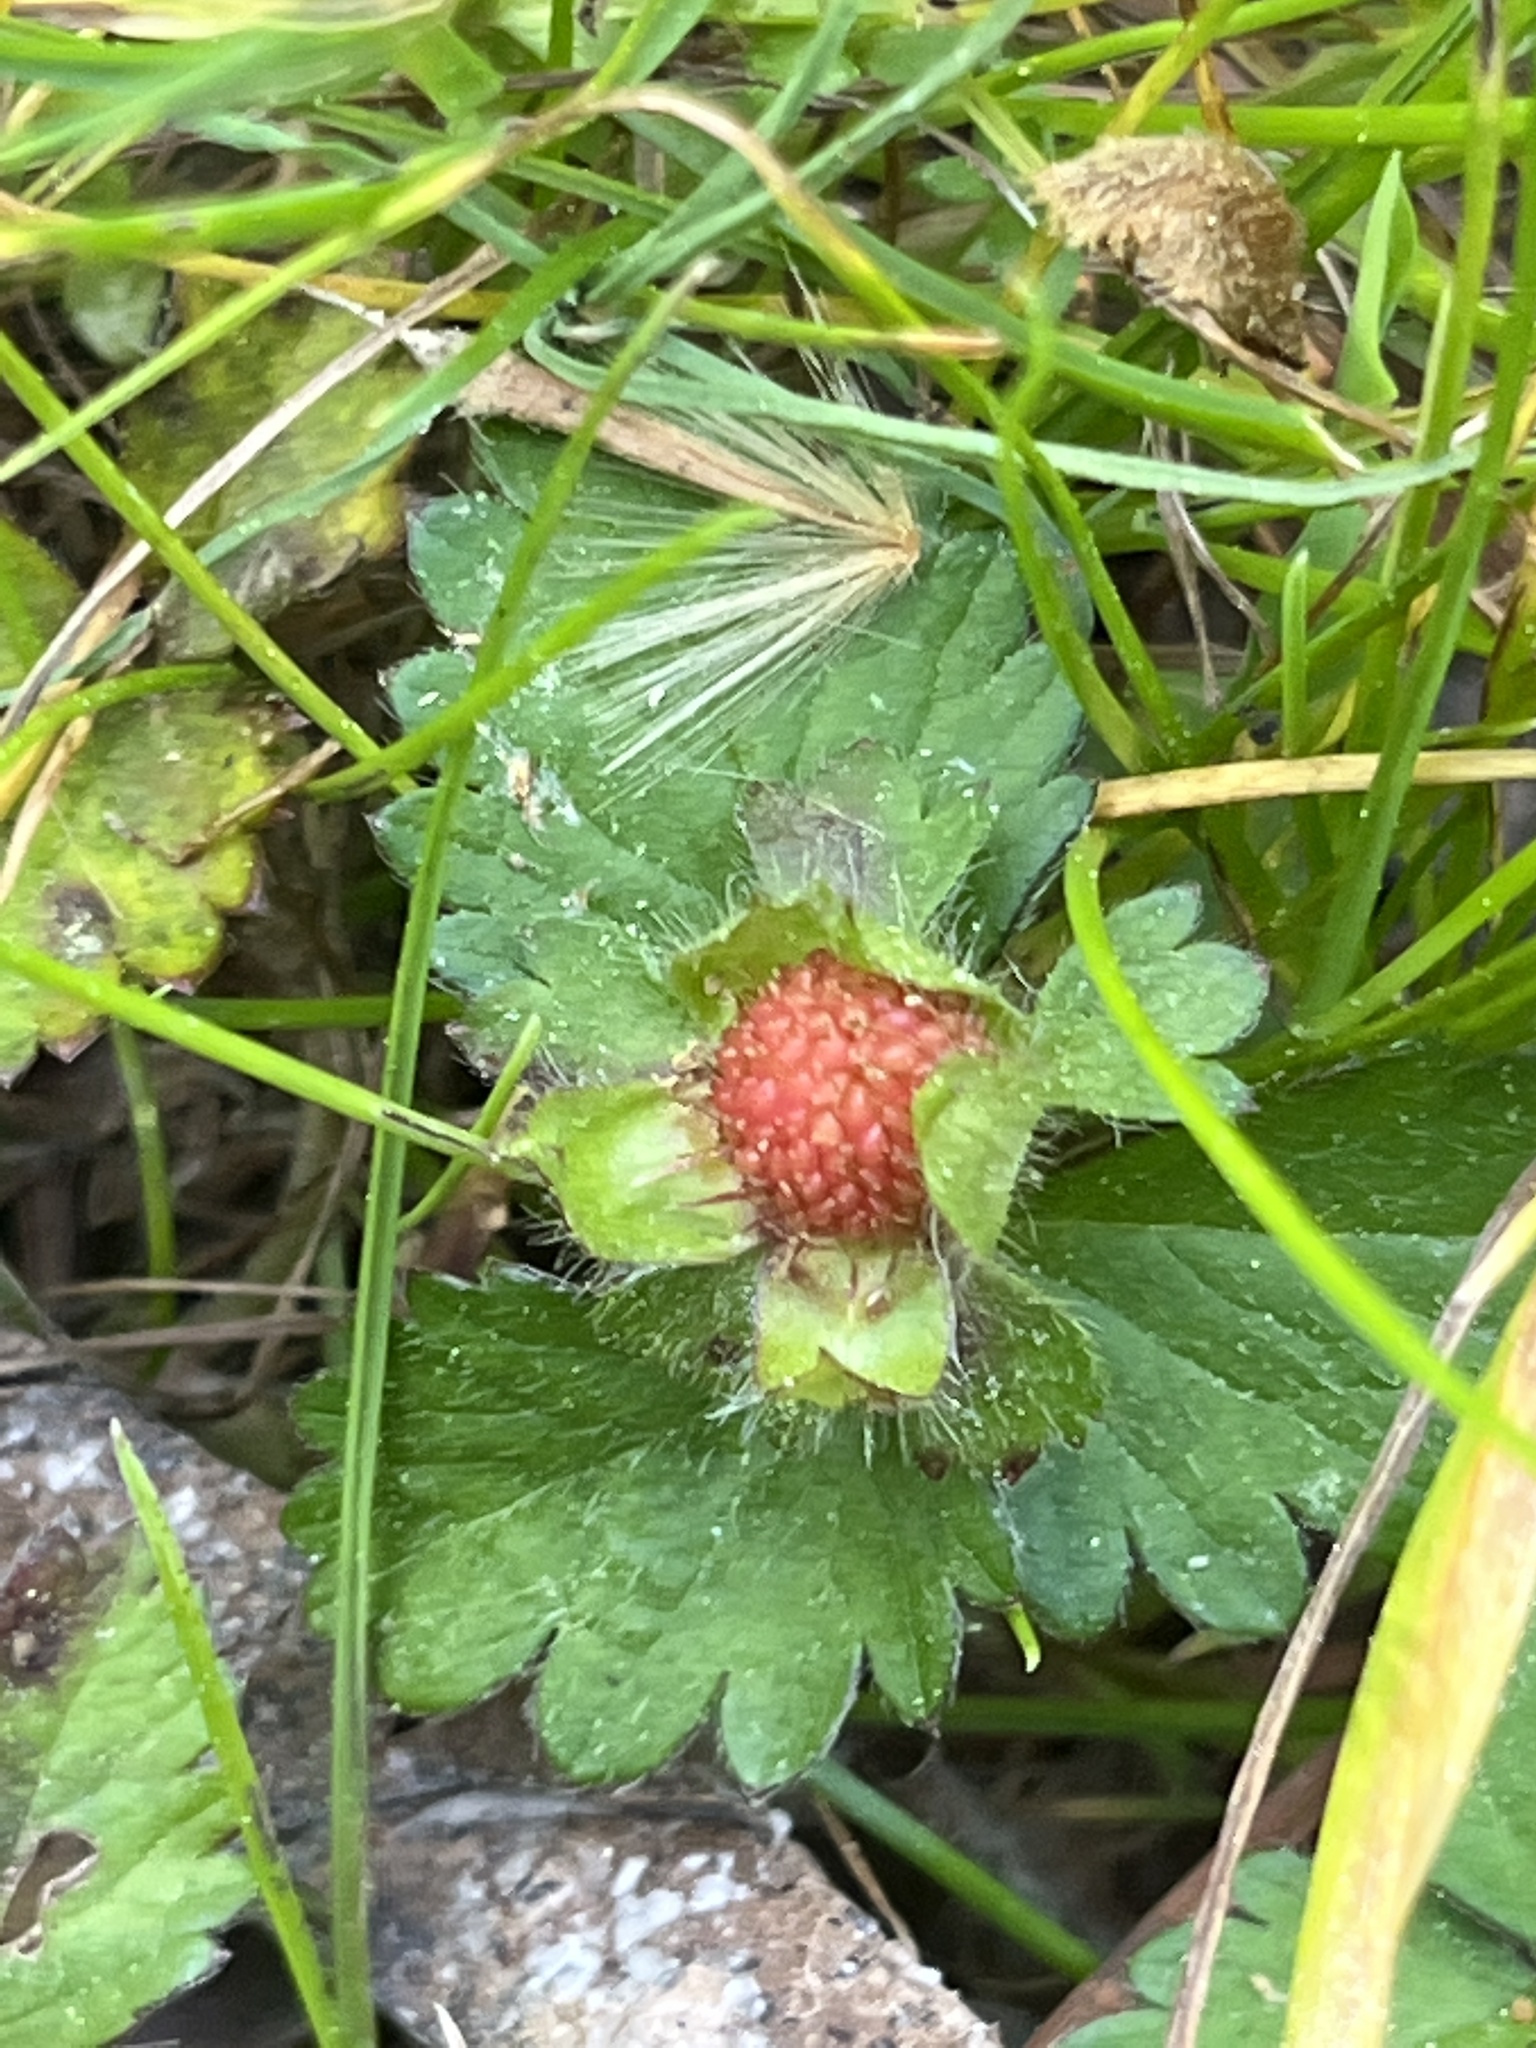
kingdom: Plantae
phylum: Tracheophyta
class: Magnoliopsida
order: Rosales
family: Rosaceae
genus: Potentilla
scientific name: Potentilla indica
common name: Yellow-flowered strawberry
